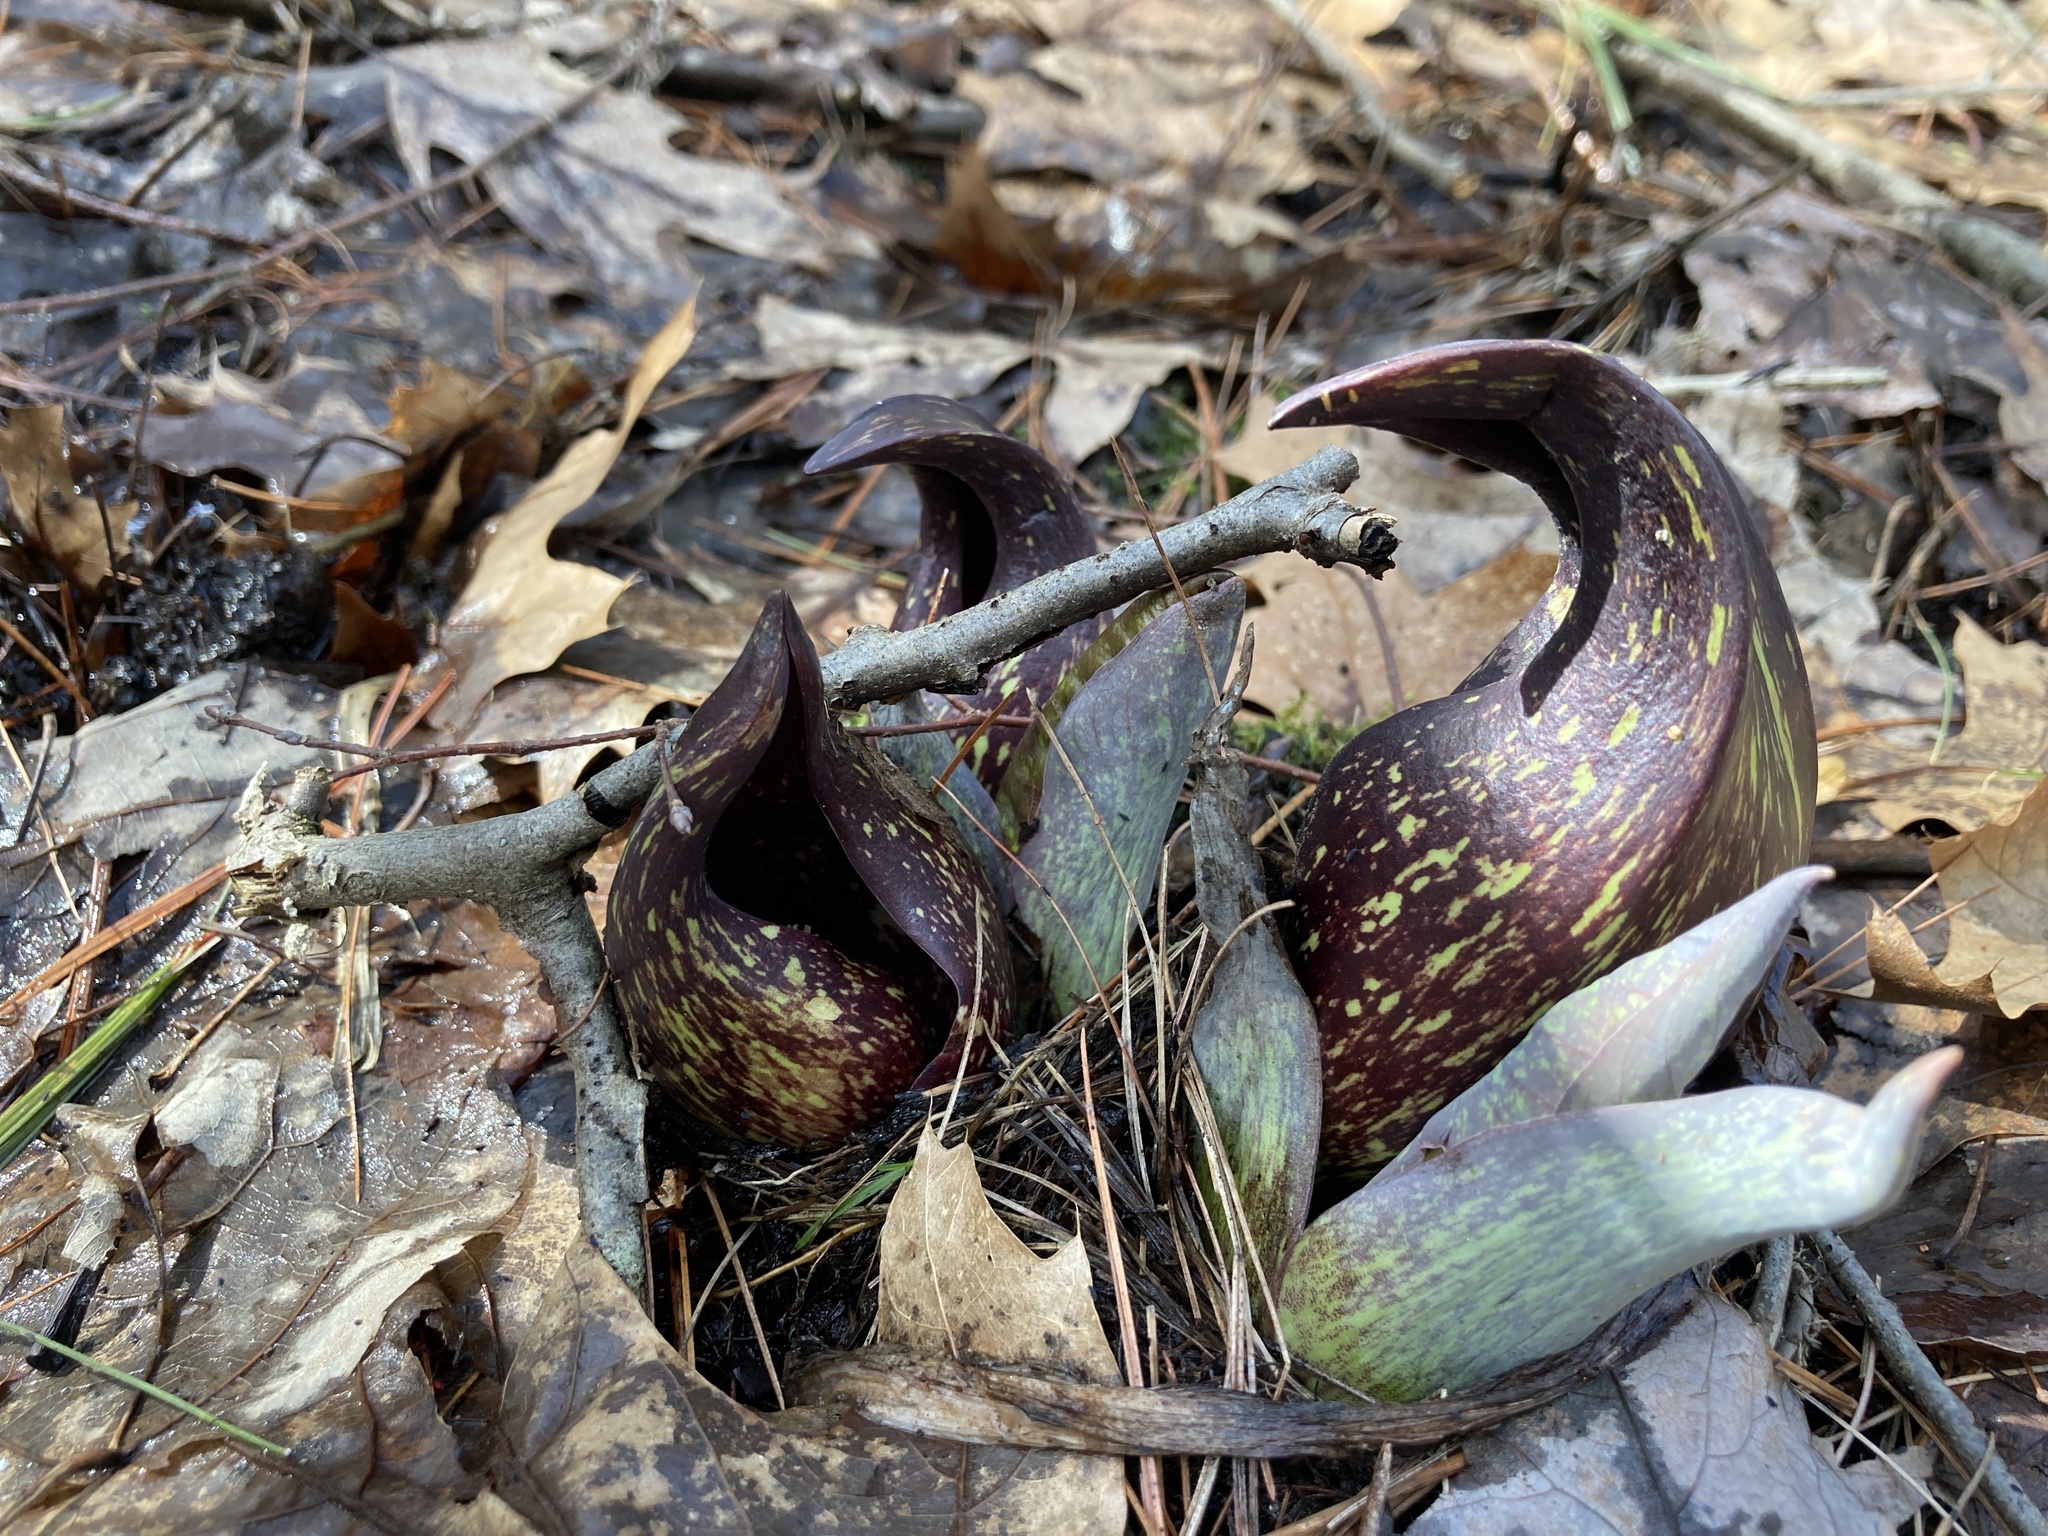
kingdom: Plantae
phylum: Tracheophyta
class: Liliopsida
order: Alismatales
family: Araceae
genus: Symplocarpus
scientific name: Symplocarpus foetidus
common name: Eastern skunk cabbage
